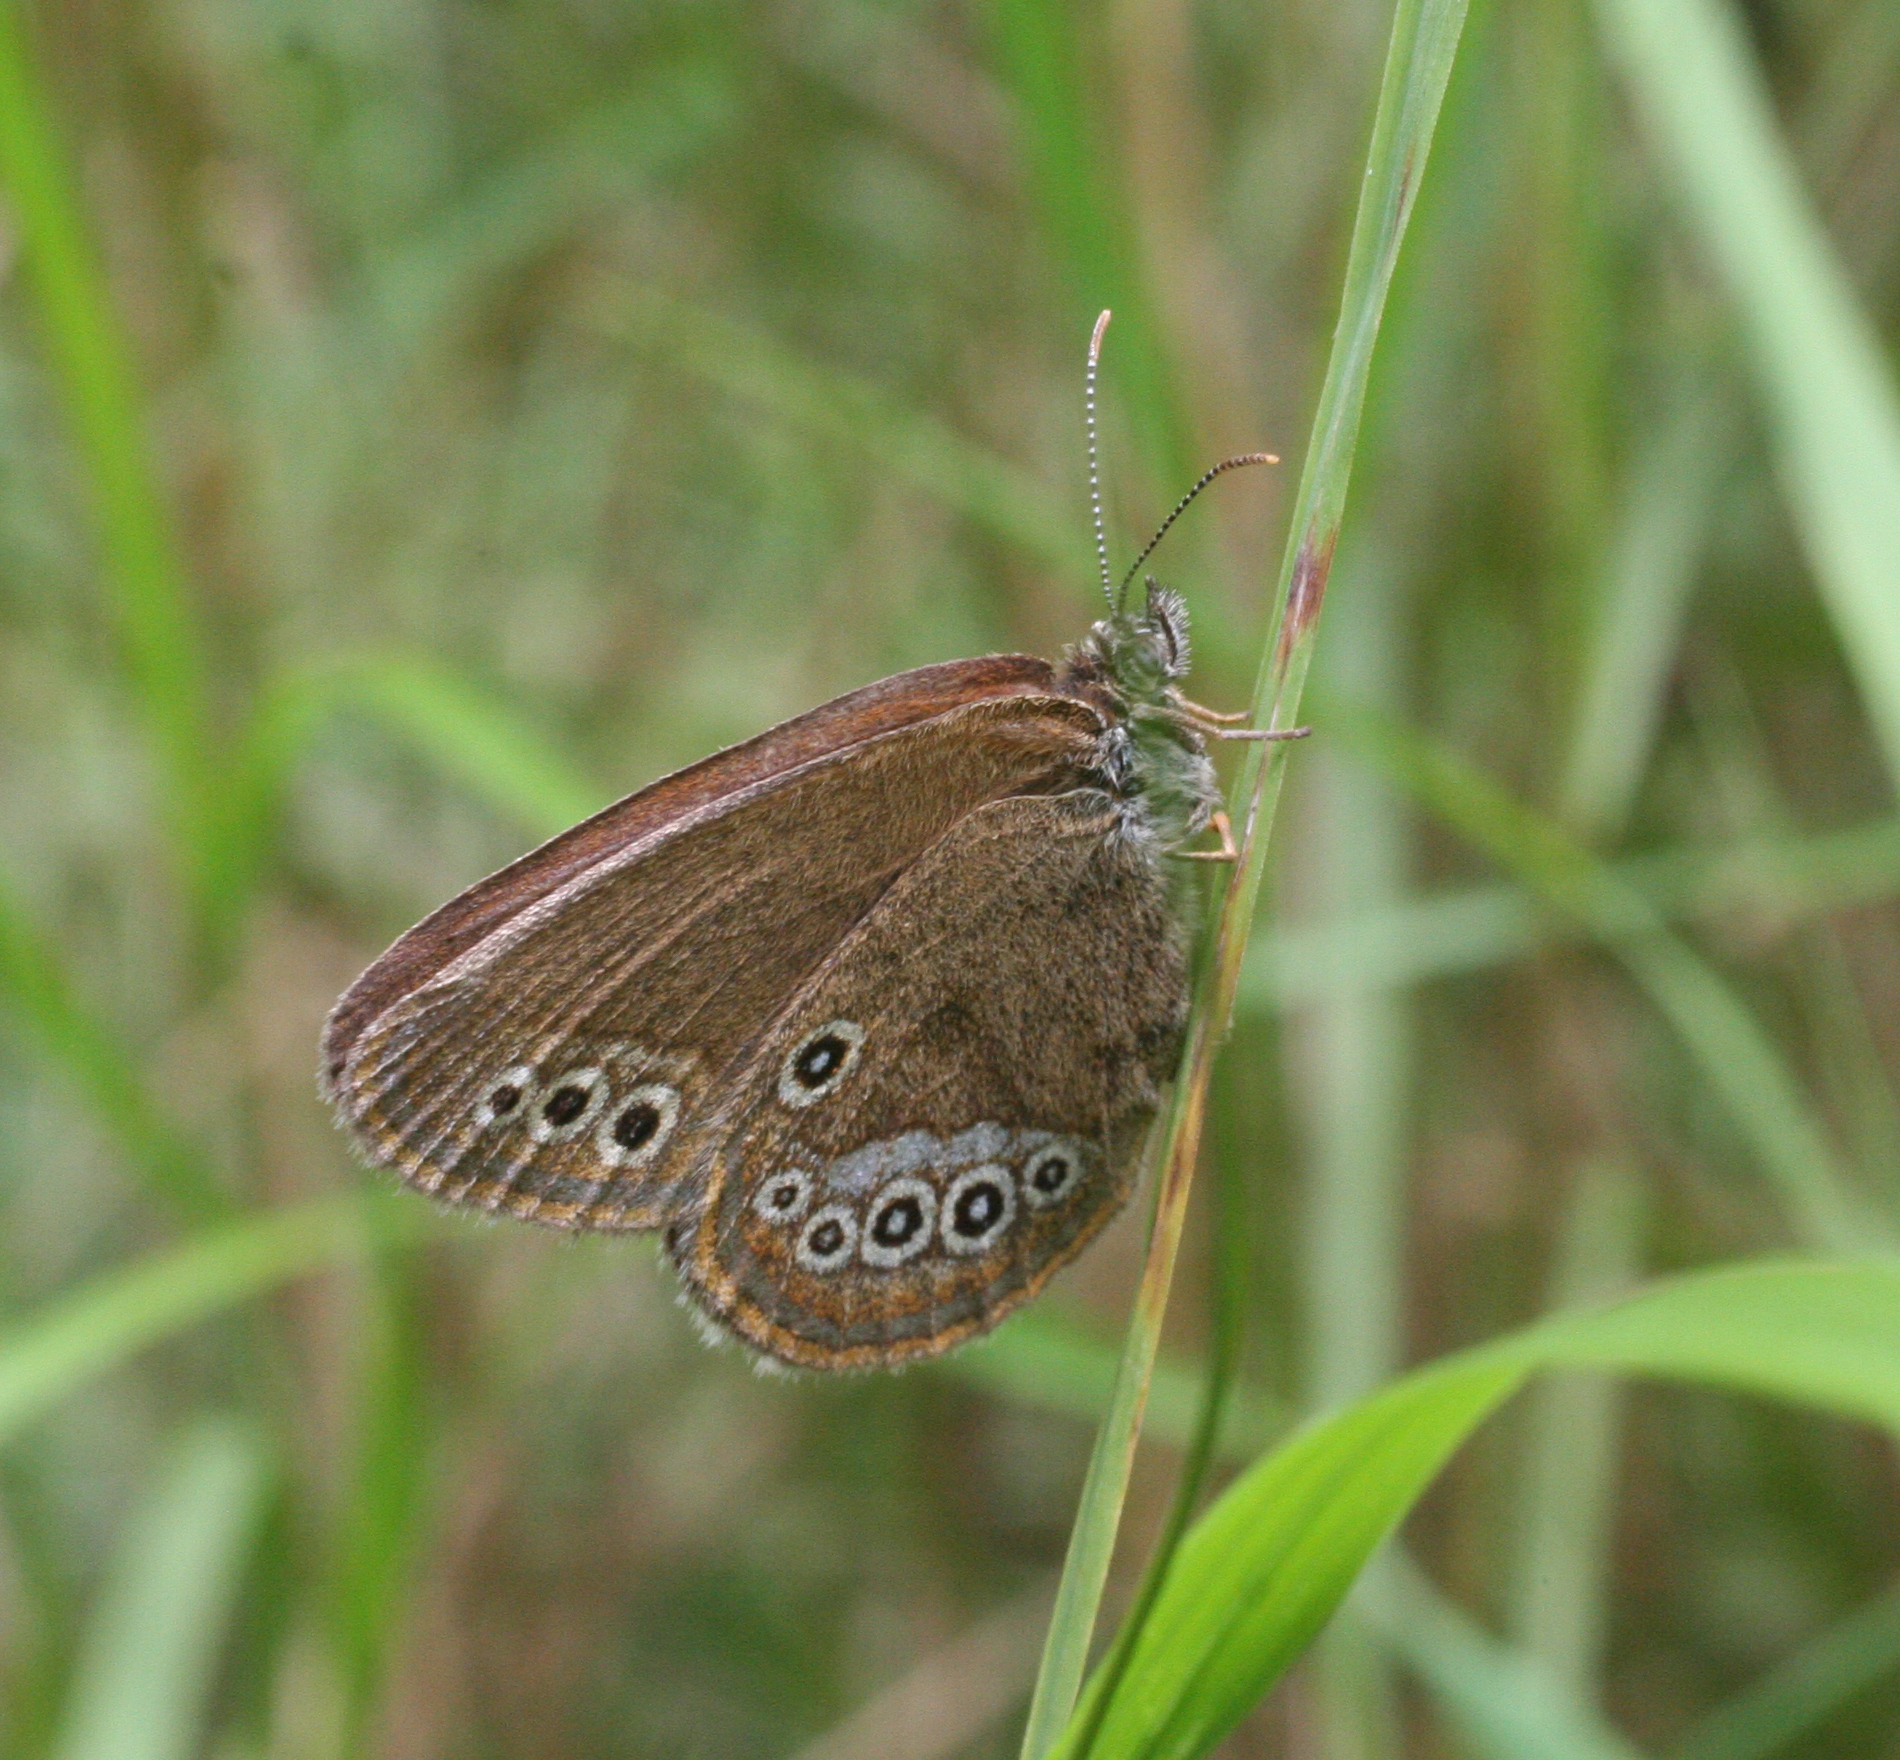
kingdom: Animalia
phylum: Arthropoda
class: Insecta
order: Lepidoptera
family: Nymphalidae
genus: Coenonympha
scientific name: Coenonympha oedippus
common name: False ringlet
